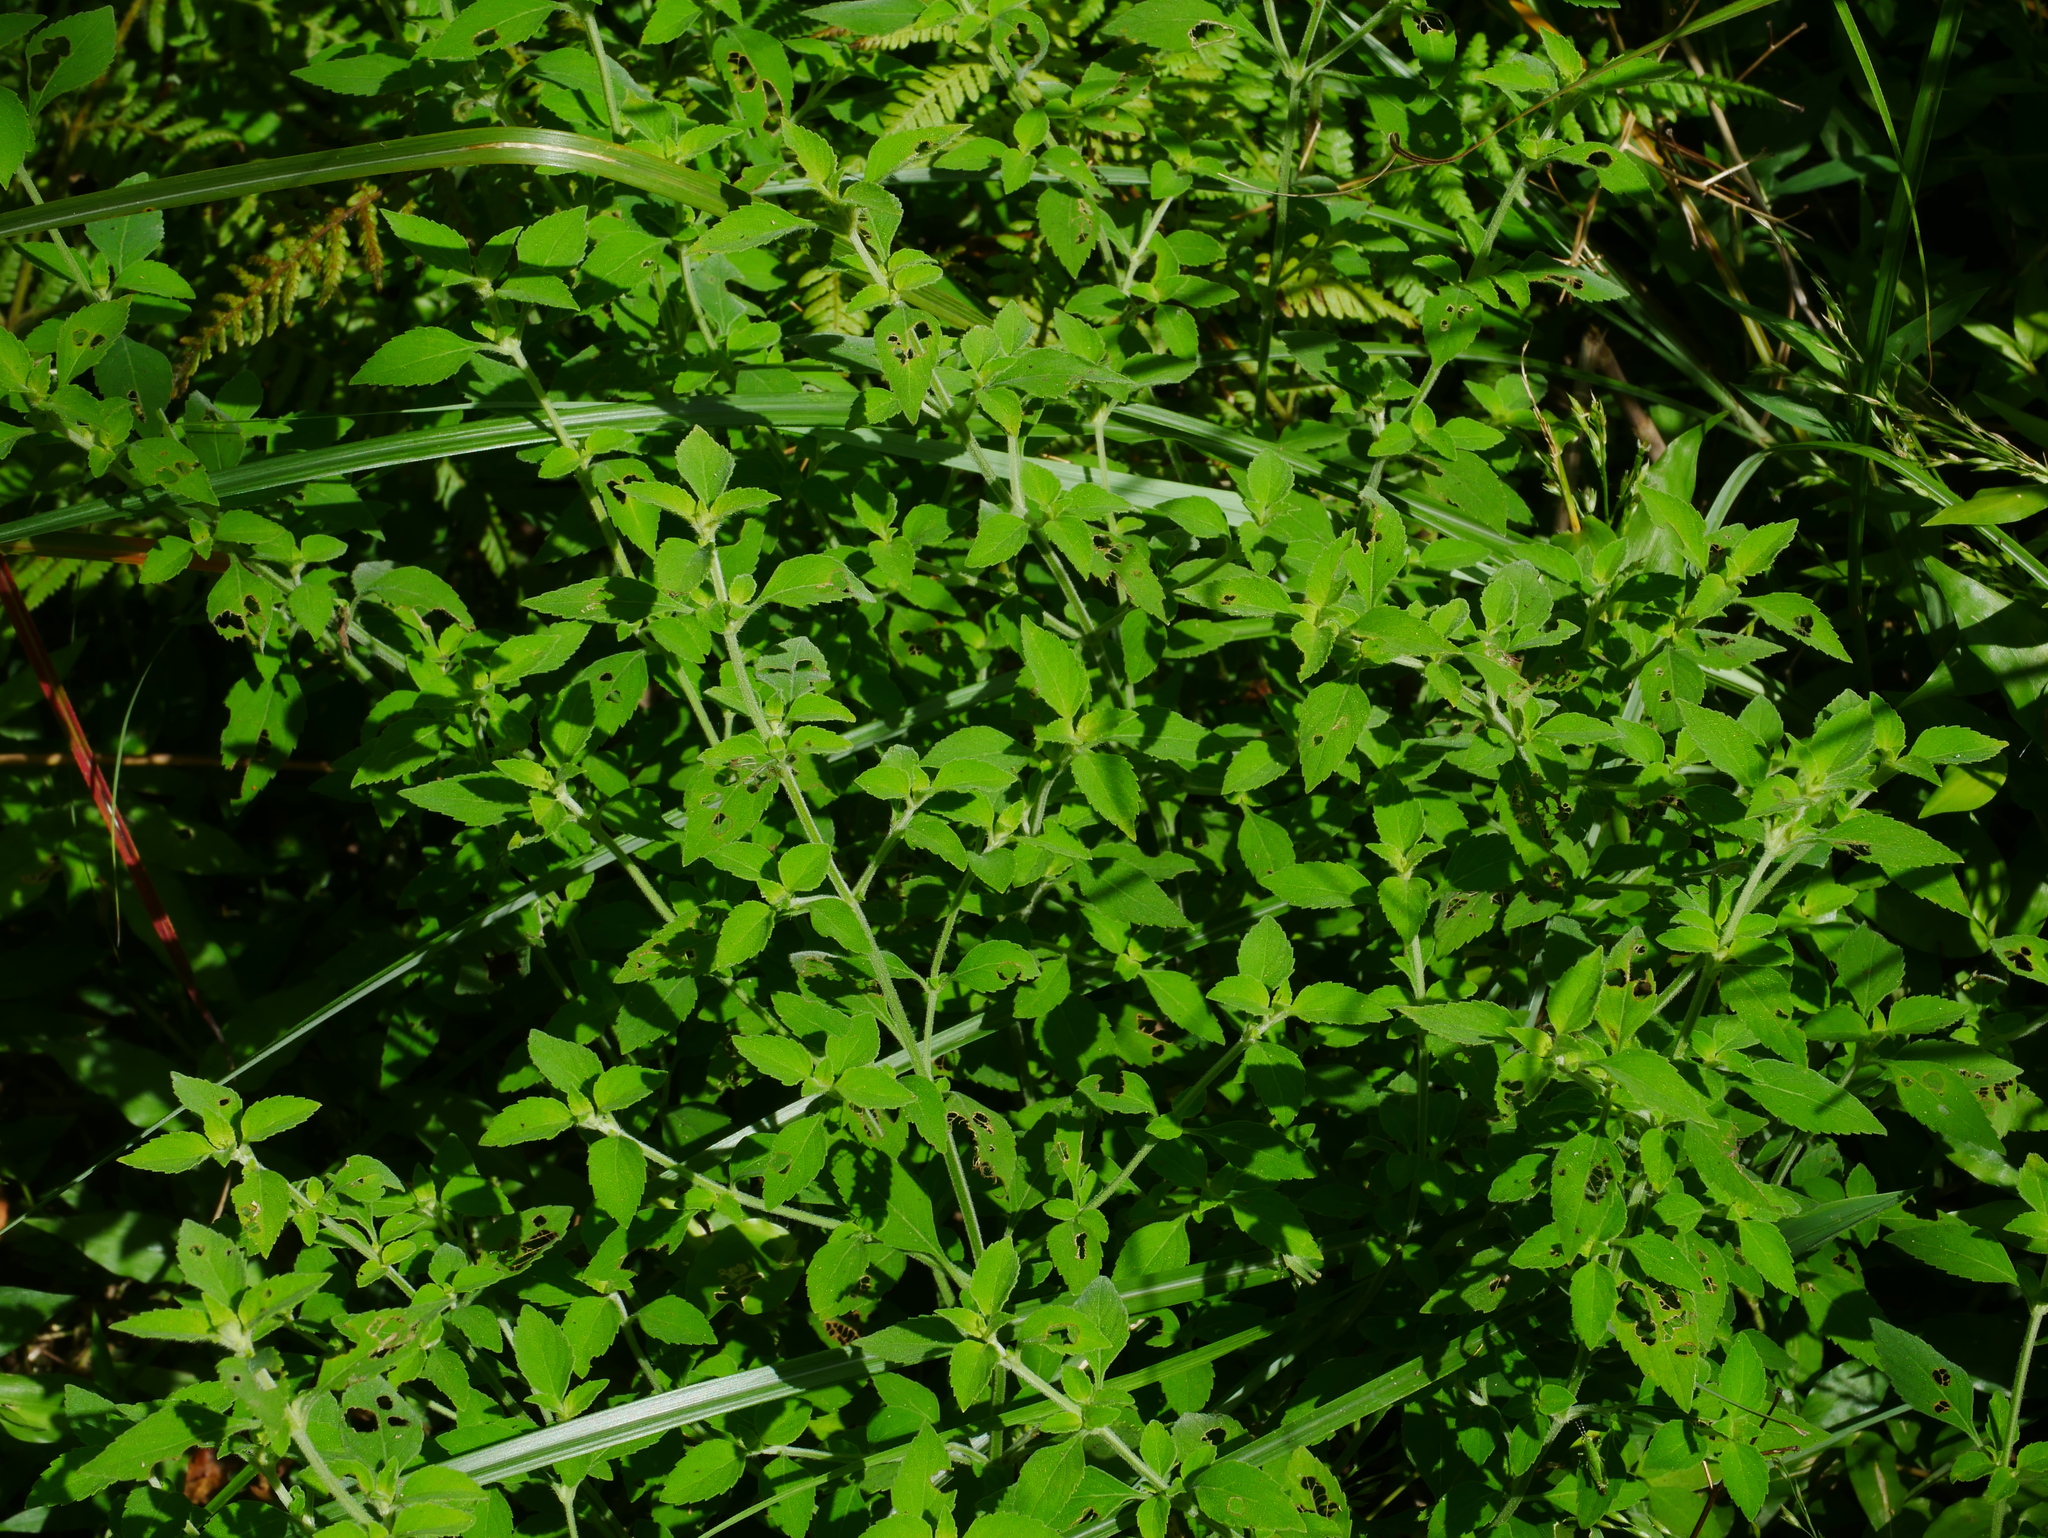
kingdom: Plantae
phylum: Tracheophyta
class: Magnoliopsida
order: Lamiales
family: Lamiaceae
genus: Mosla
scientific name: Mosla scabra
